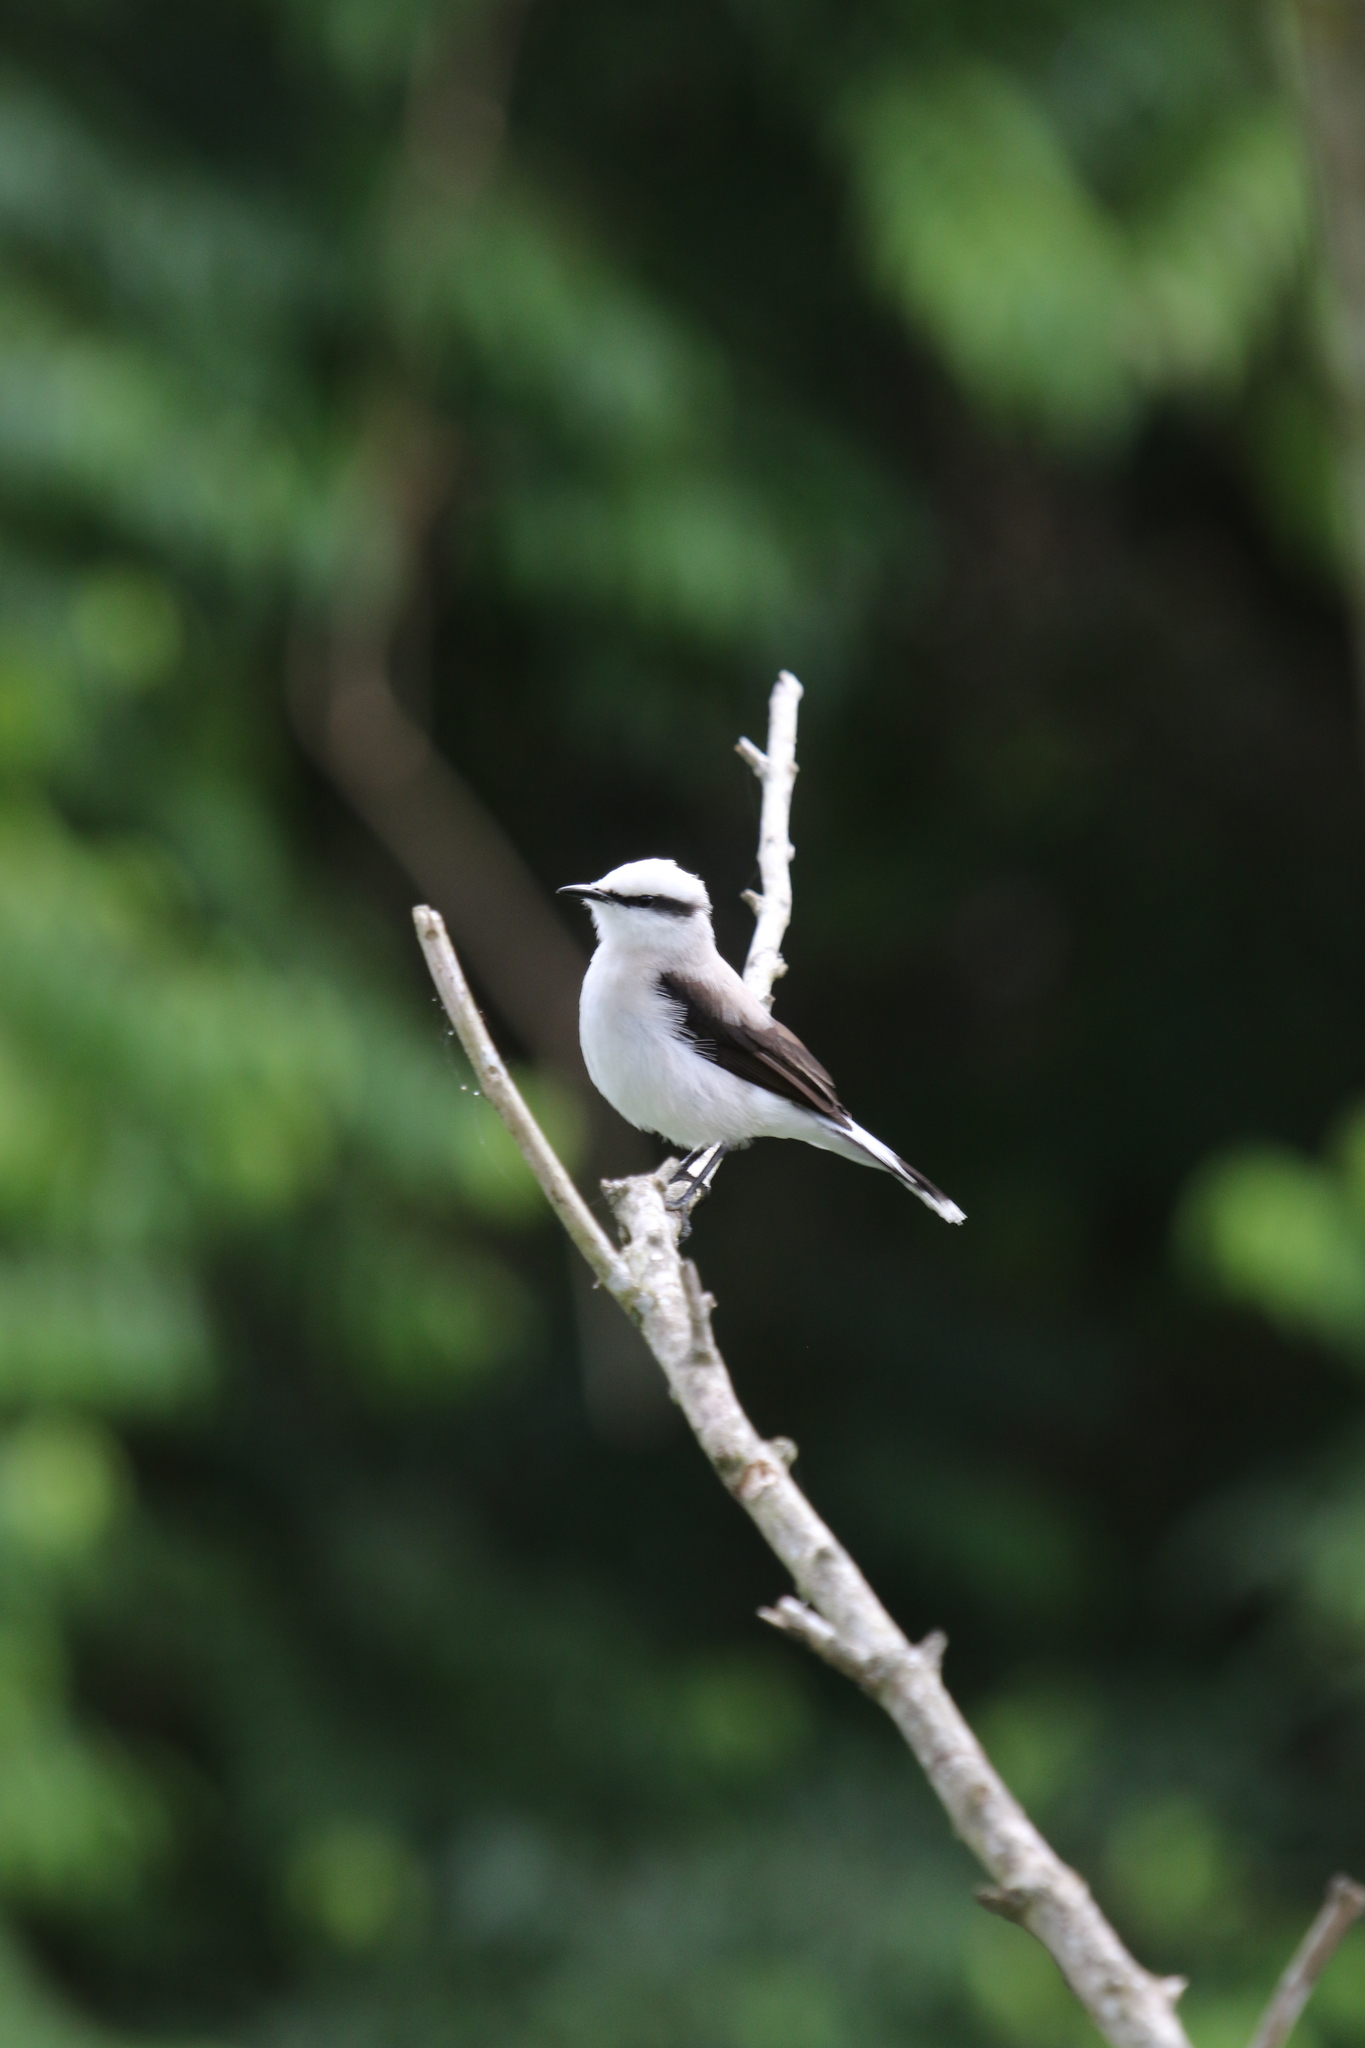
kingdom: Animalia
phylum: Chordata
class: Aves
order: Passeriformes
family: Tyrannidae
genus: Fluvicola
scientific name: Fluvicola nengeta
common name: Masked water tyrant
